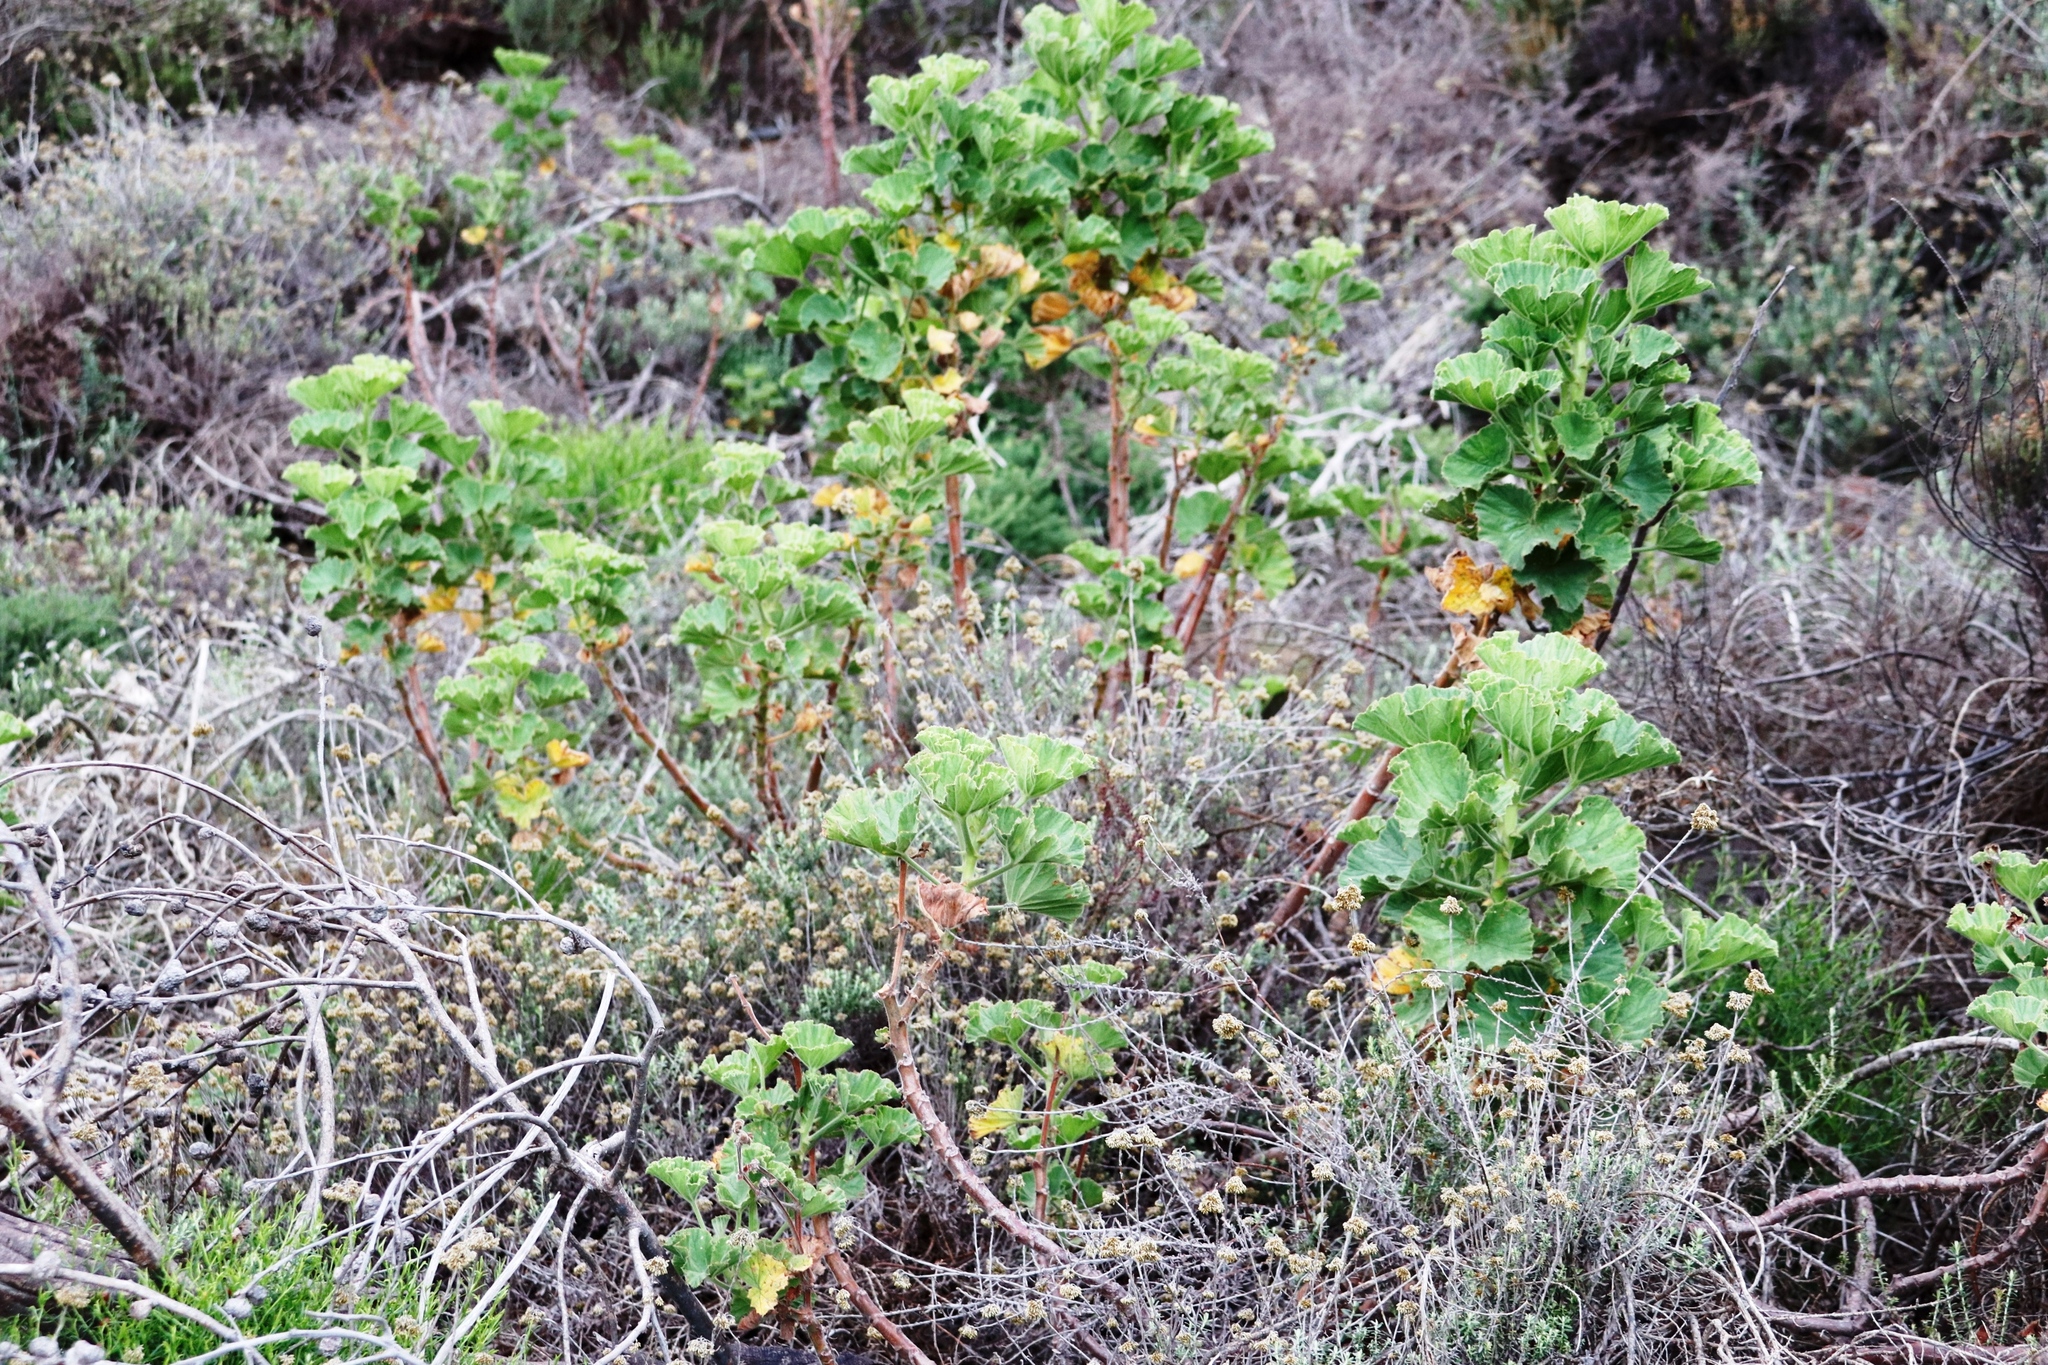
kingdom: Plantae
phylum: Tracheophyta
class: Magnoliopsida
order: Geraniales
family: Geraniaceae
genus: Pelargonium
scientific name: Pelargonium cucullatum
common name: Tree pelargonium
